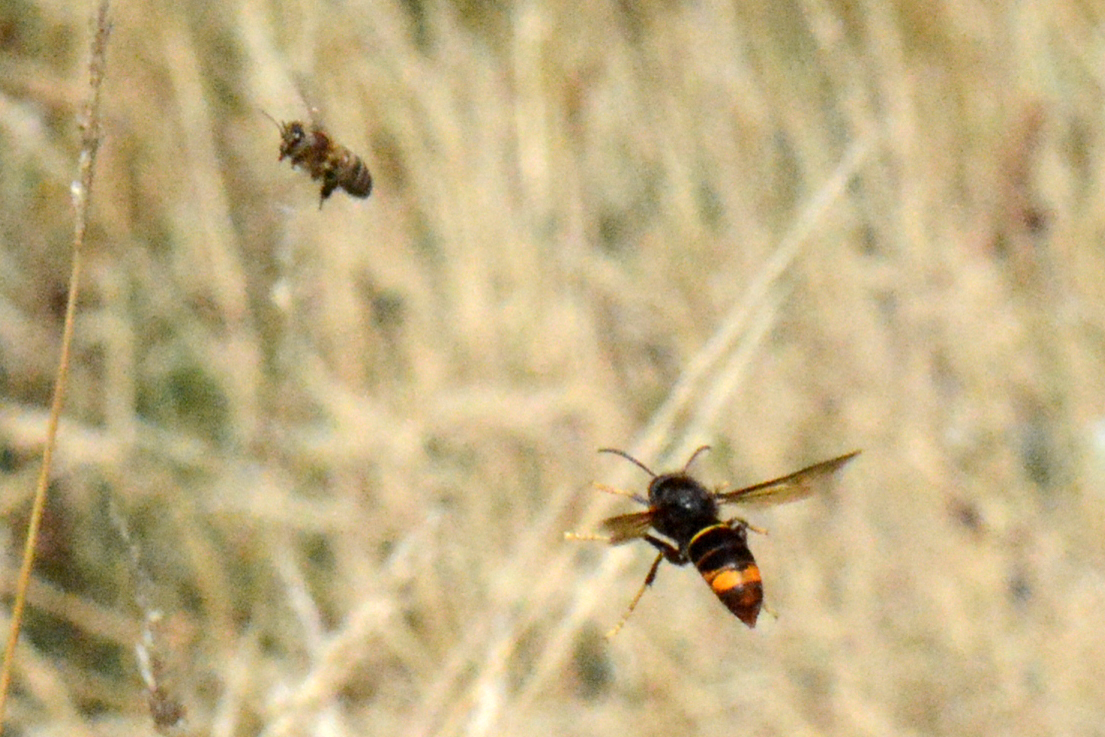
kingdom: Animalia
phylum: Arthropoda
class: Insecta
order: Hymenoptera
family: Vespidae
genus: Vespa
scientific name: Vespa velutina
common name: Asian hornet
